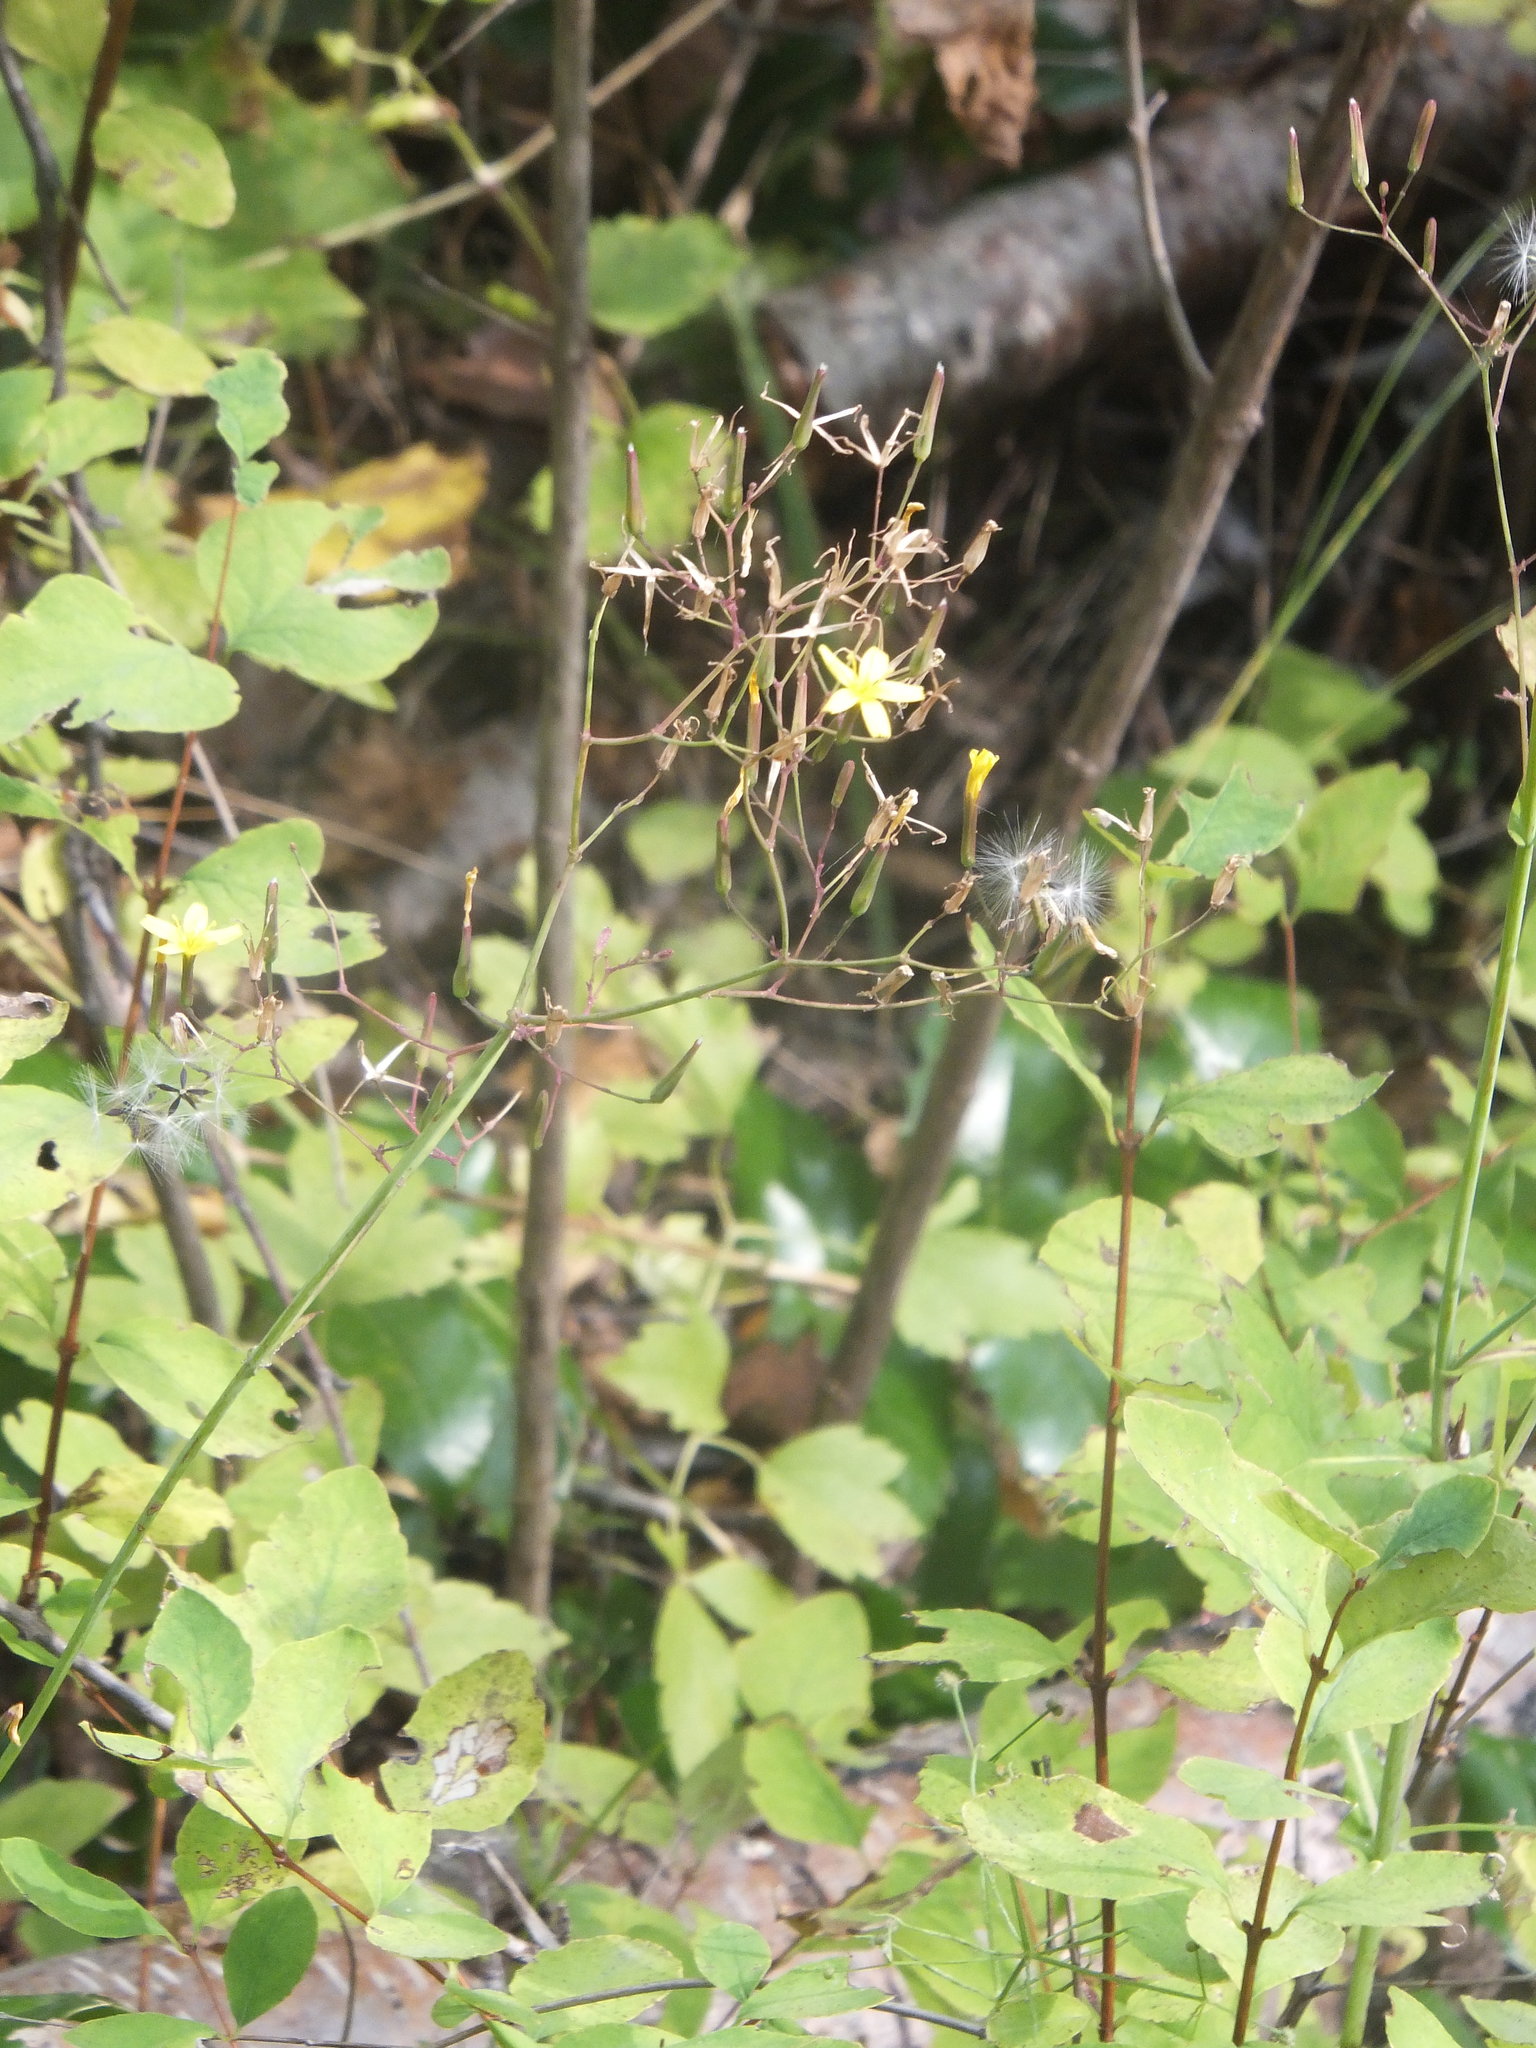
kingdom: Plantae
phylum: Tracheophyta
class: Magnoliopsida
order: Asterales
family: Asteraceae
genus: Mycelis
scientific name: Mycelis muralis
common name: Wall lettuce
